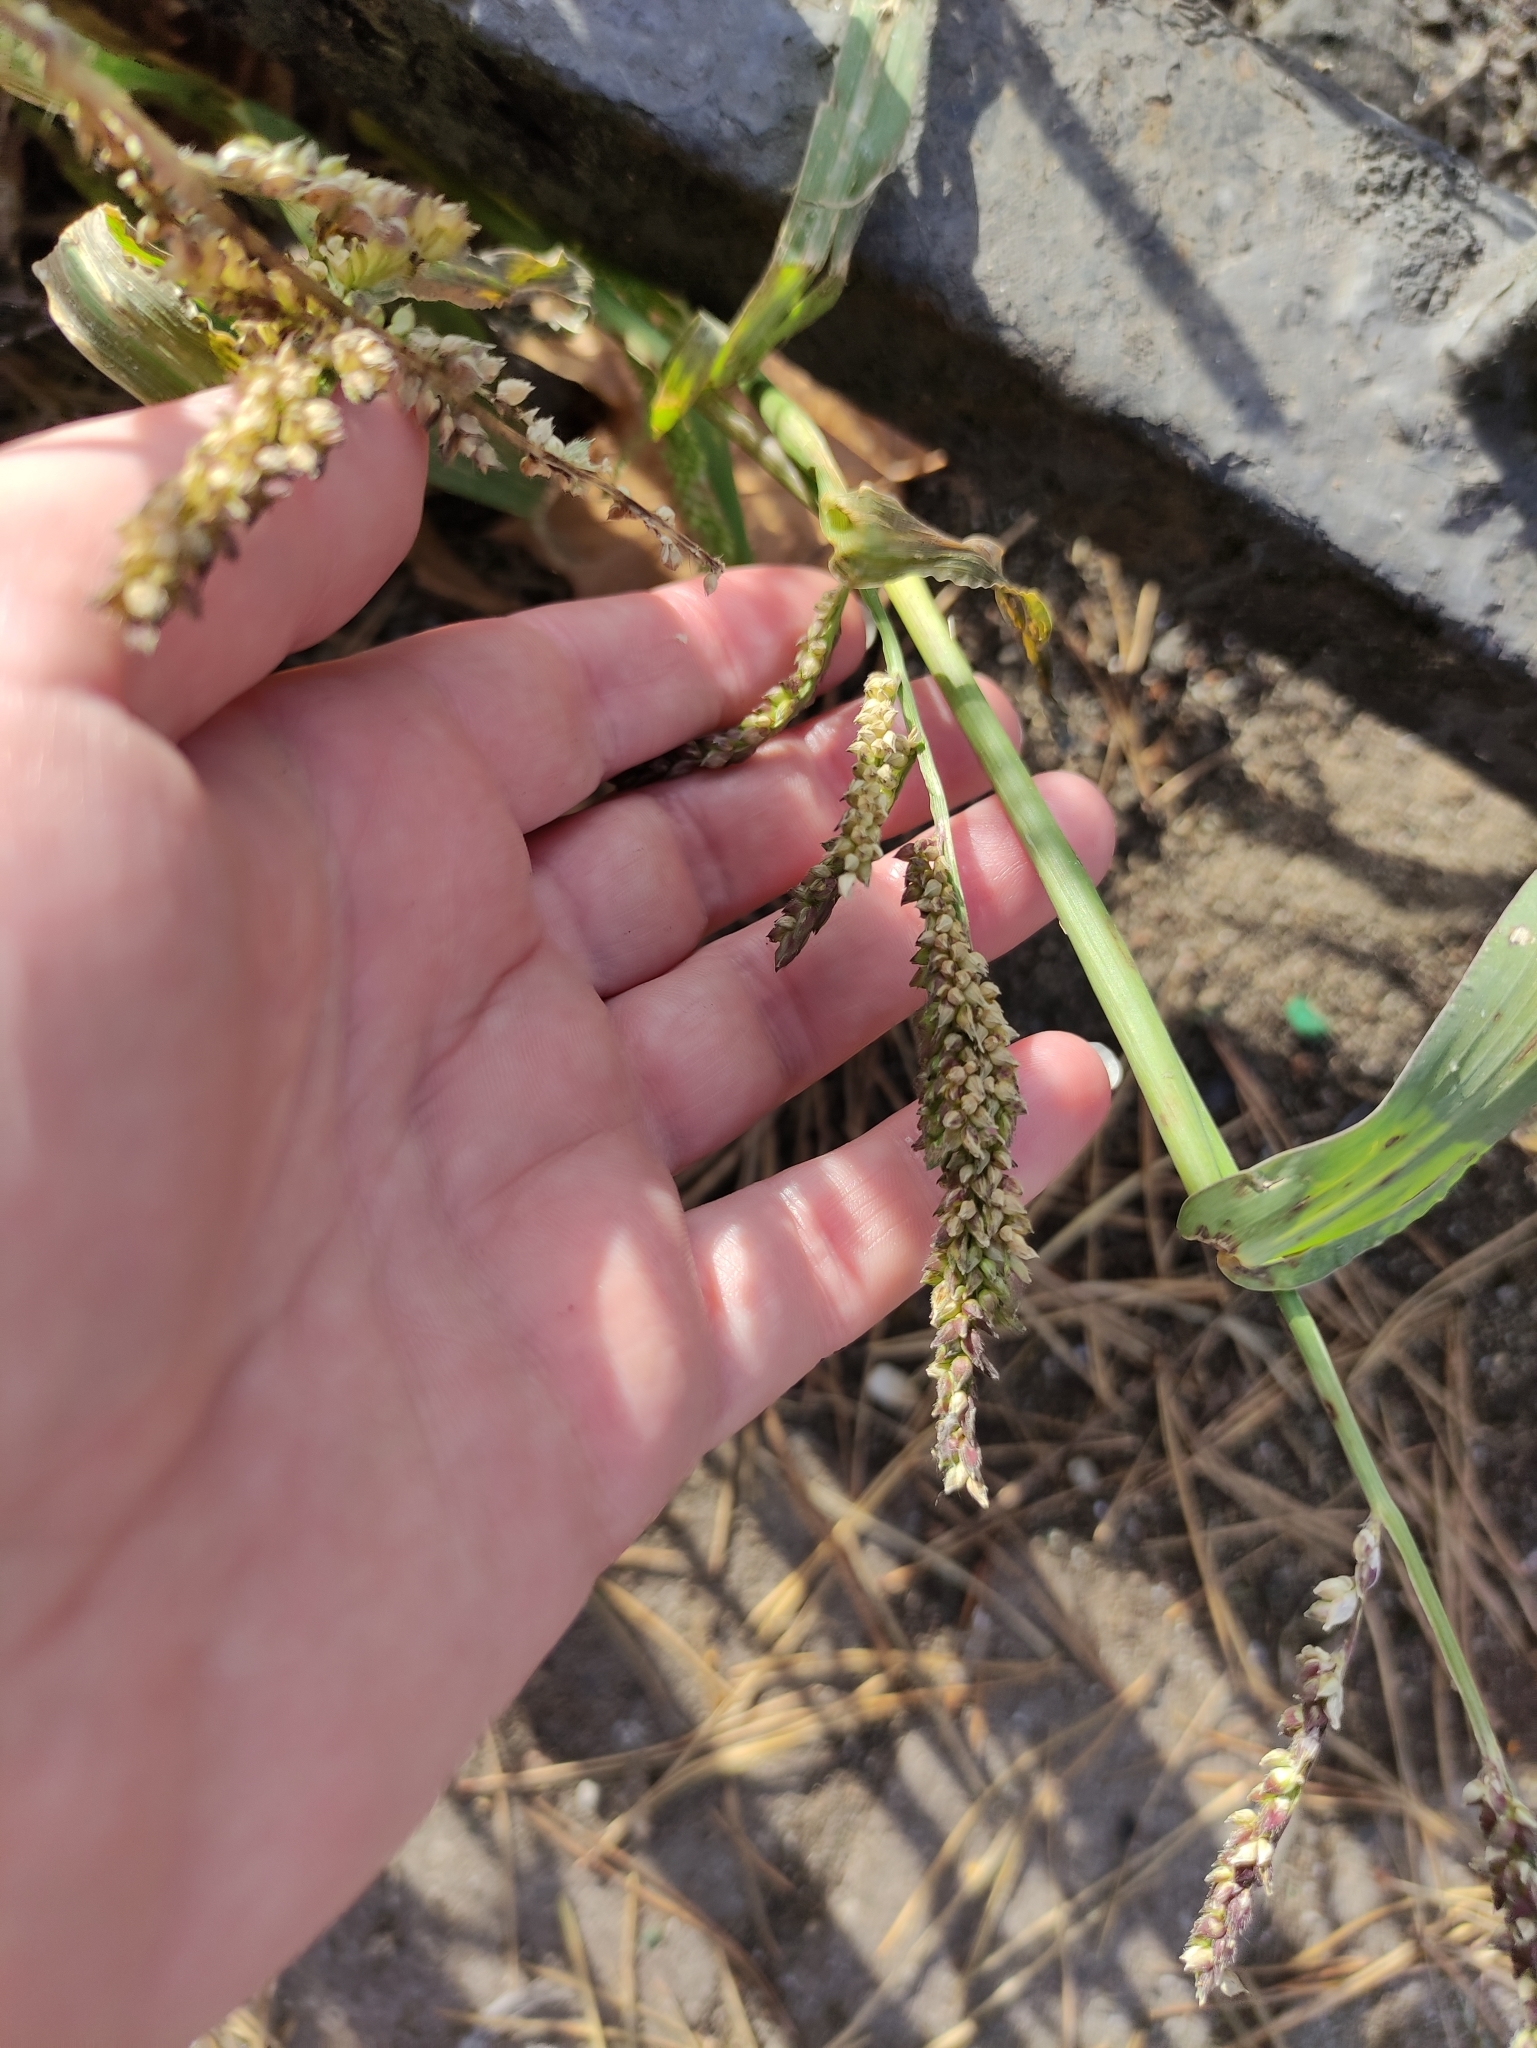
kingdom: Plantae
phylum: Tracheophyta
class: Liliopsida
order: Poales
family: Poaceae
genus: Echinochloa
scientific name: Echinochloa crus-galli
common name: Cockspur
